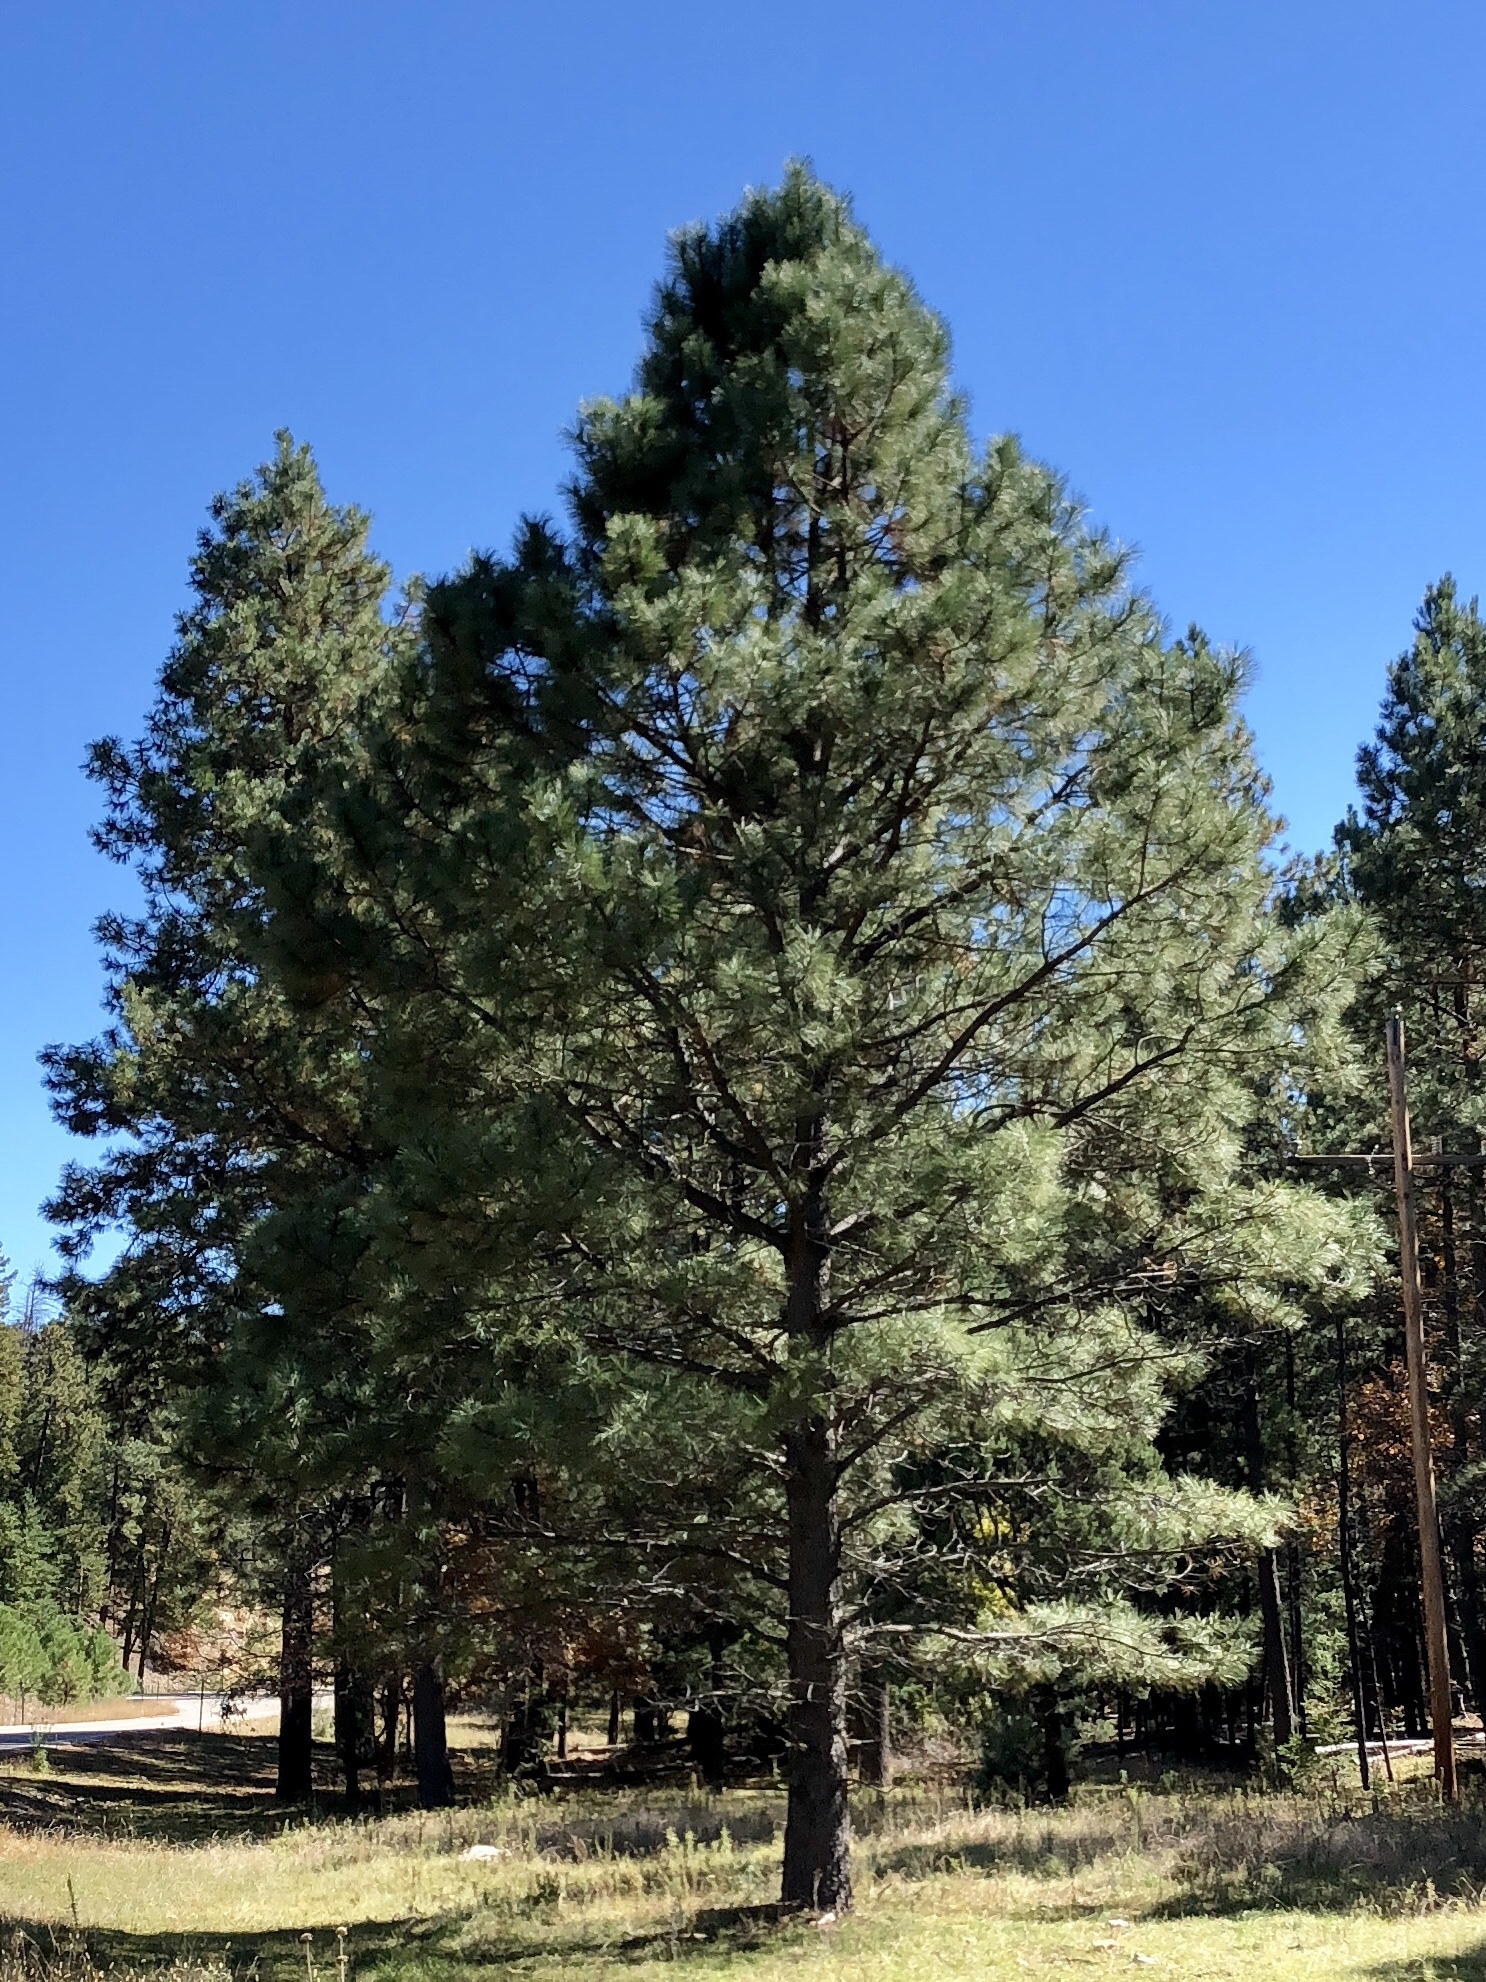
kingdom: Plantae
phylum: Tracheophyta
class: Pinopsida
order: Pinales
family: Pinaceae
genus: Pinus
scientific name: Pinus ponderosa
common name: Western yellow-pine
